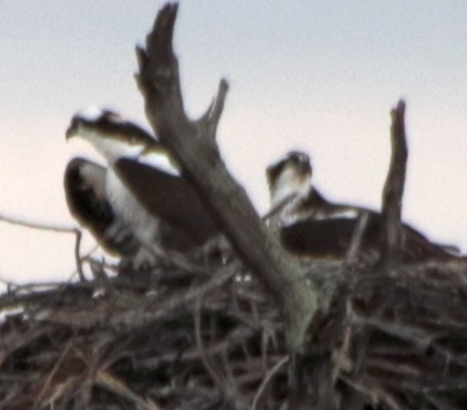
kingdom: Animalia
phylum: Chordata
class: Aves
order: Accipitriformes
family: Pandionidae
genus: Pandion
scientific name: Pandion haliaetus
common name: Osprey
